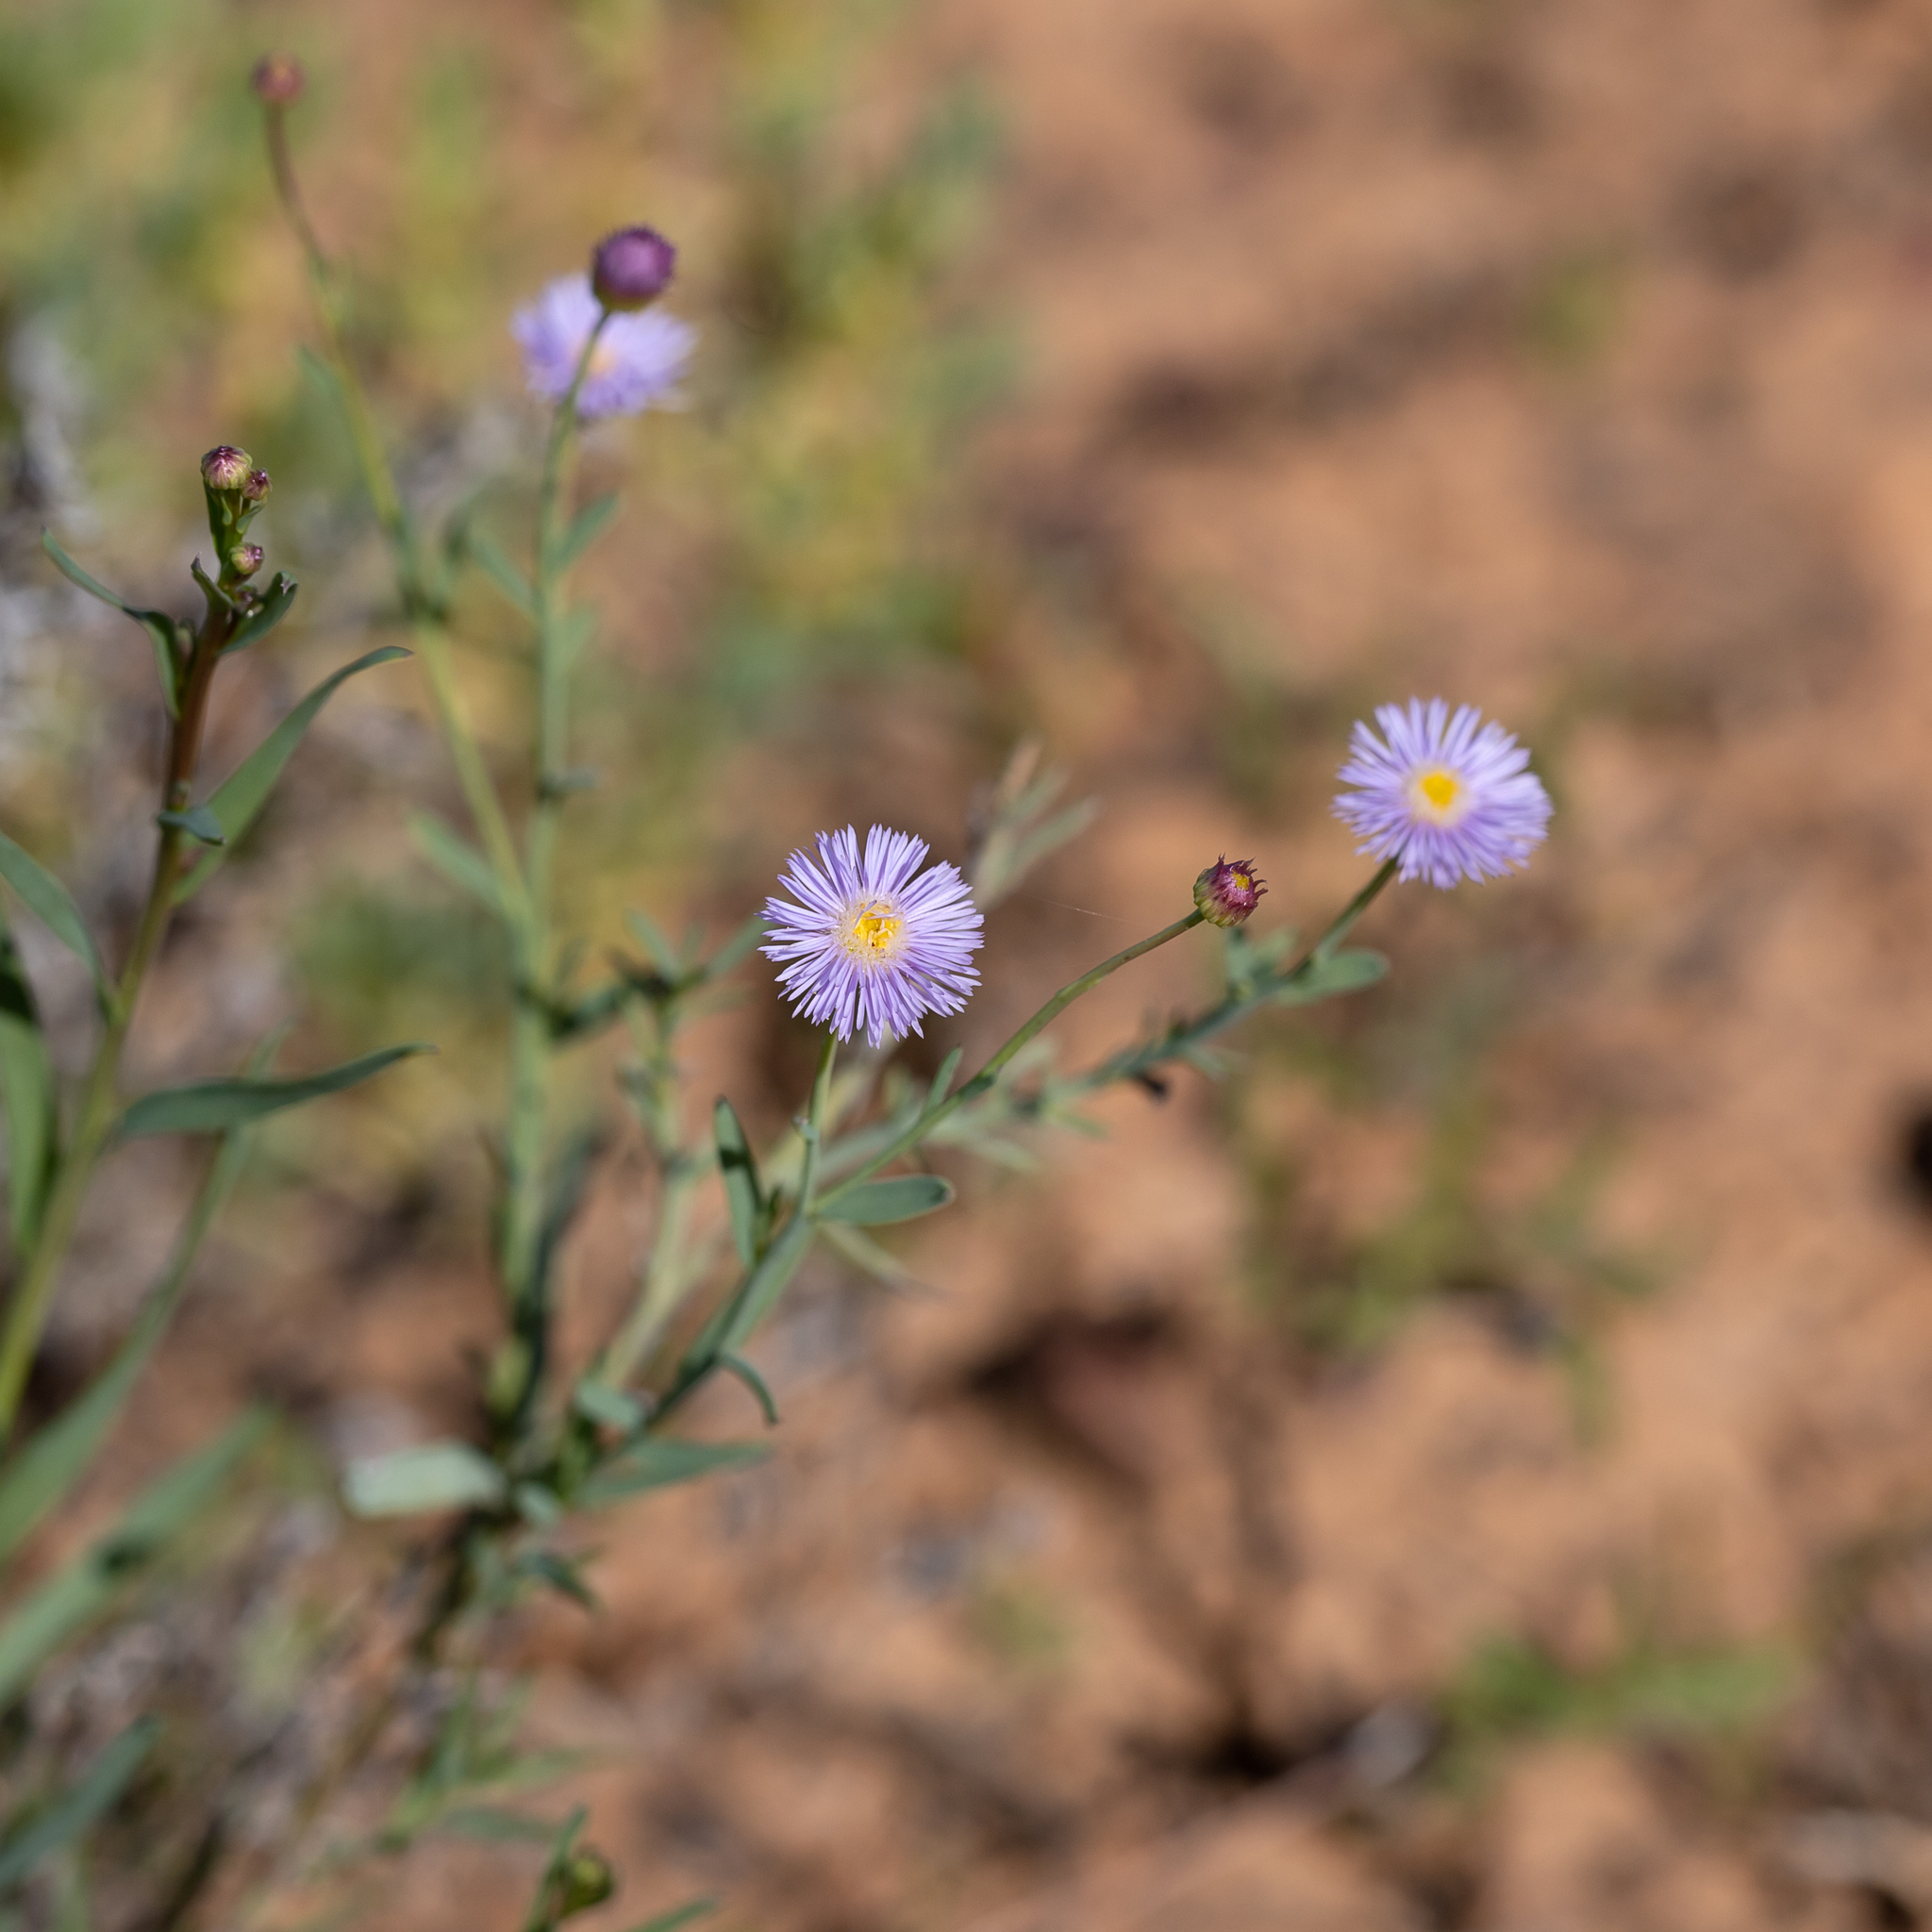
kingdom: Plantae
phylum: Tracheophyta
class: Magnoliopsida
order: Asterales
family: Asteraceae
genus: Minuria
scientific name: Minuria integerrima
